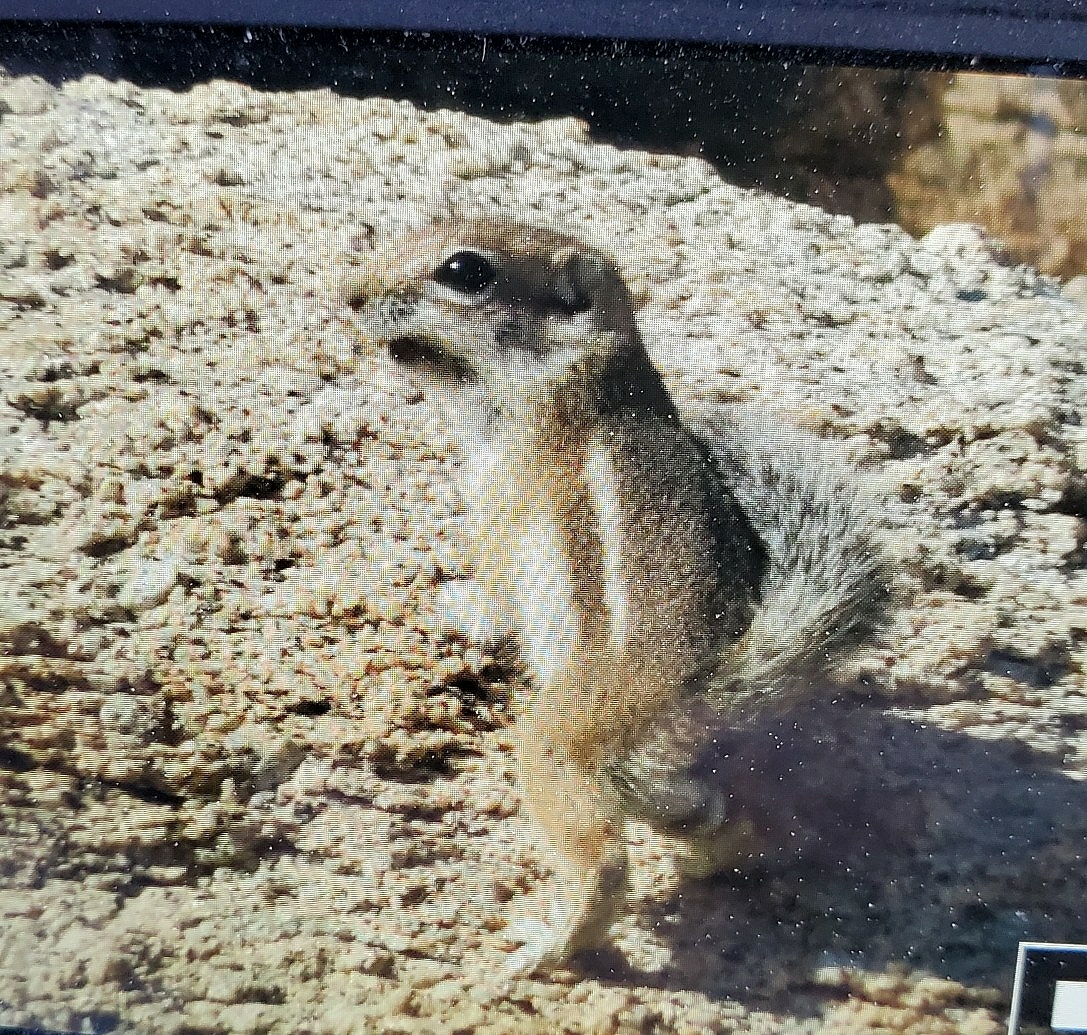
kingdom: Animalia
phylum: Chordata
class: Mammalia
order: Rodentia
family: Sciuridae
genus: Ammospermophilus
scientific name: Ammospermophilus harrisii
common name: Harris's antelope squirrel
